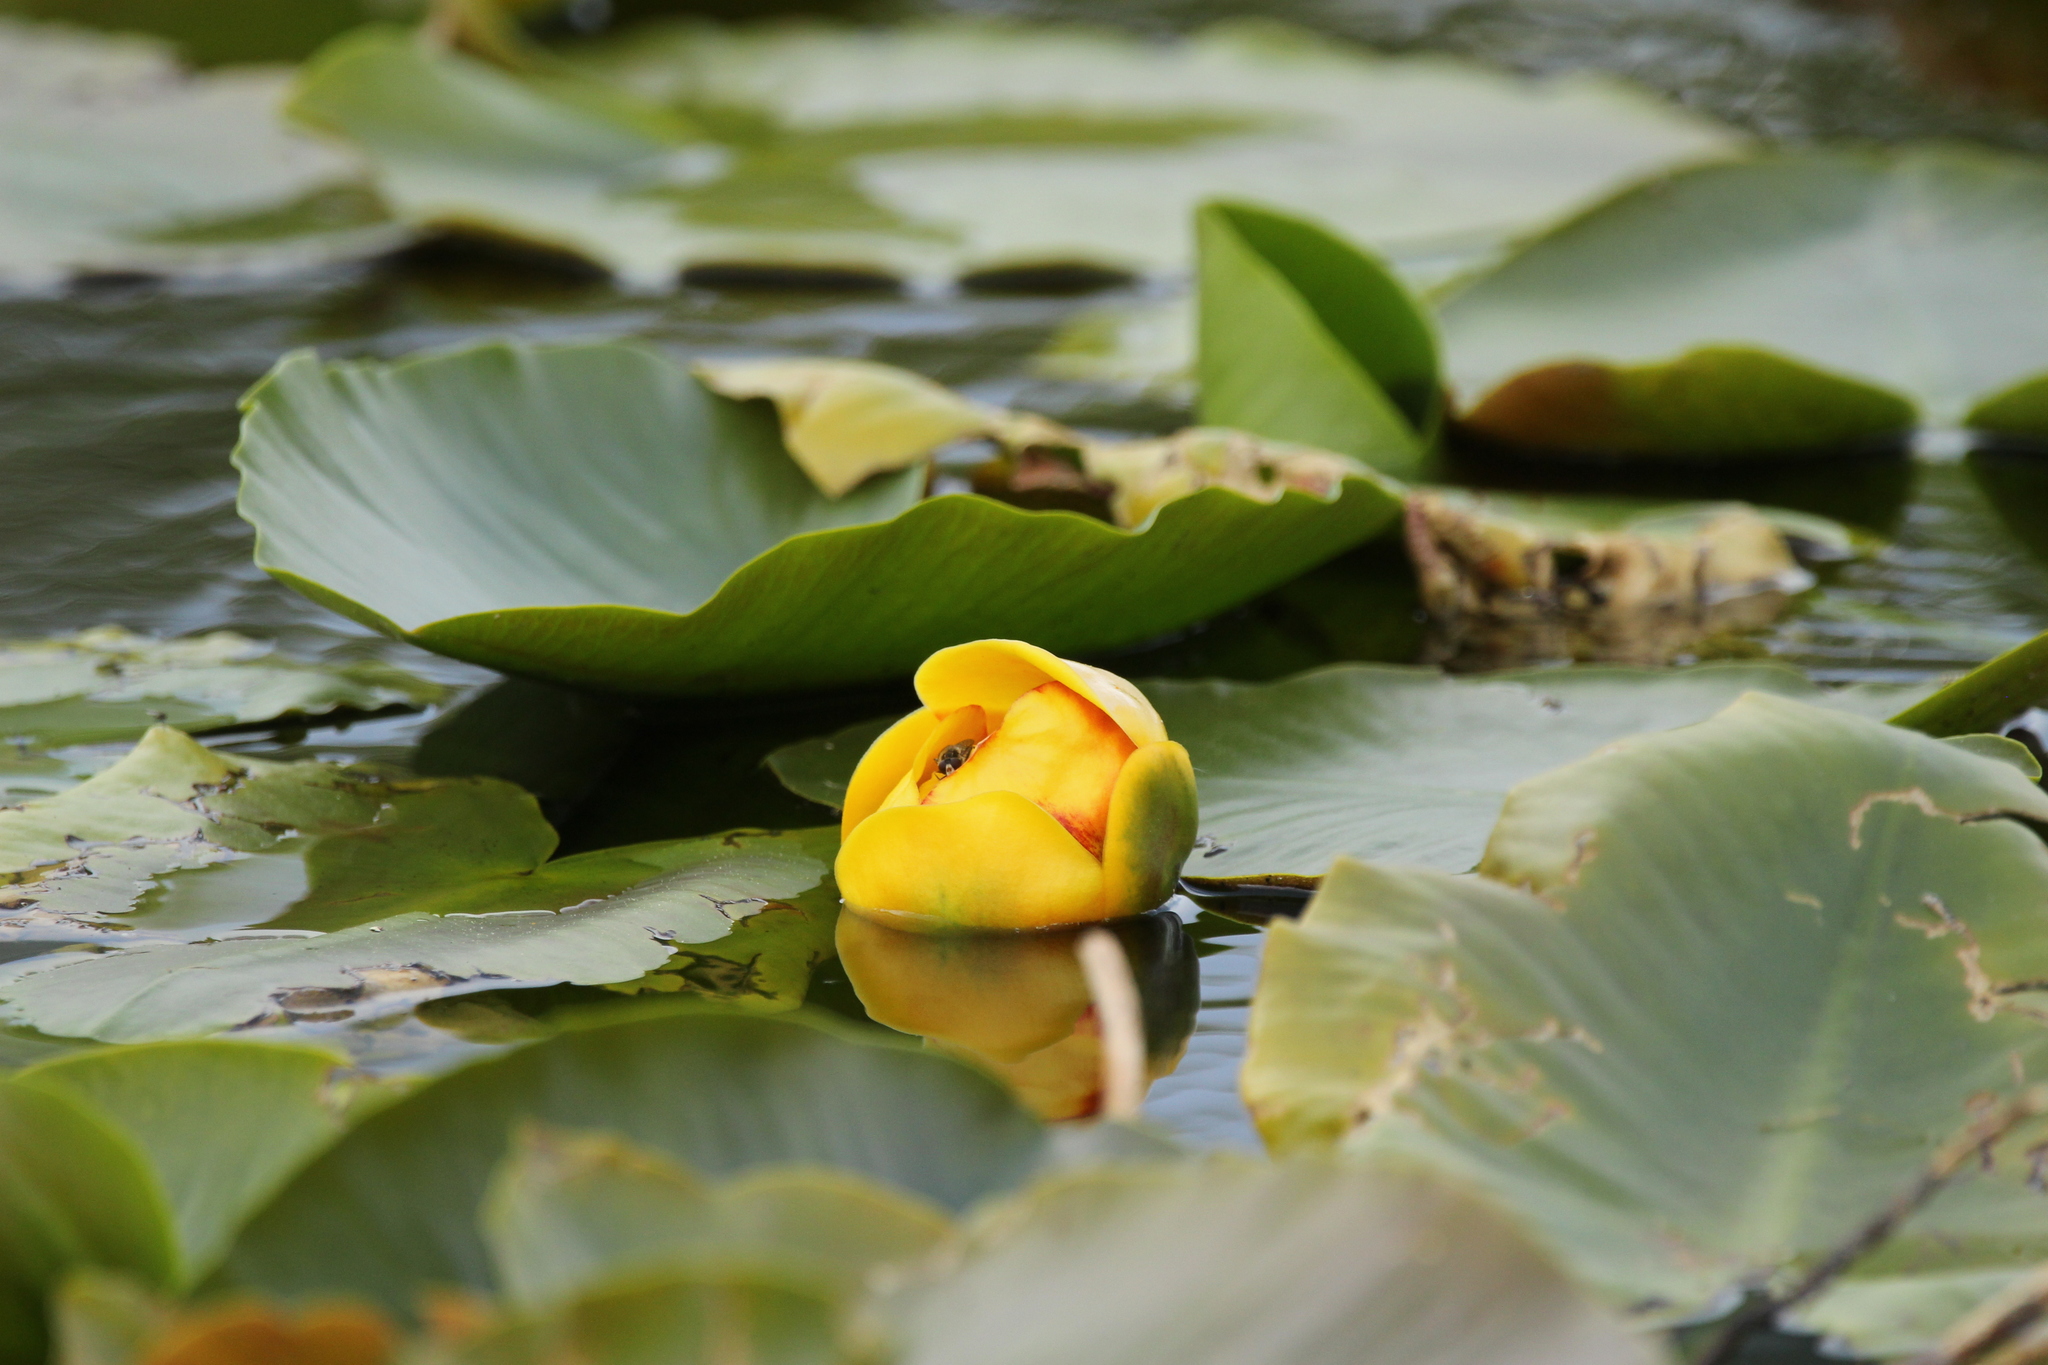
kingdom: Plantae
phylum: Tracheophyta
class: Magnoliopsida
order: Nymphaeales
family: Nymphaeaceae
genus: Nuphar
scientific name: Nuphar polysepala
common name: Rocky mountain cow-lily
